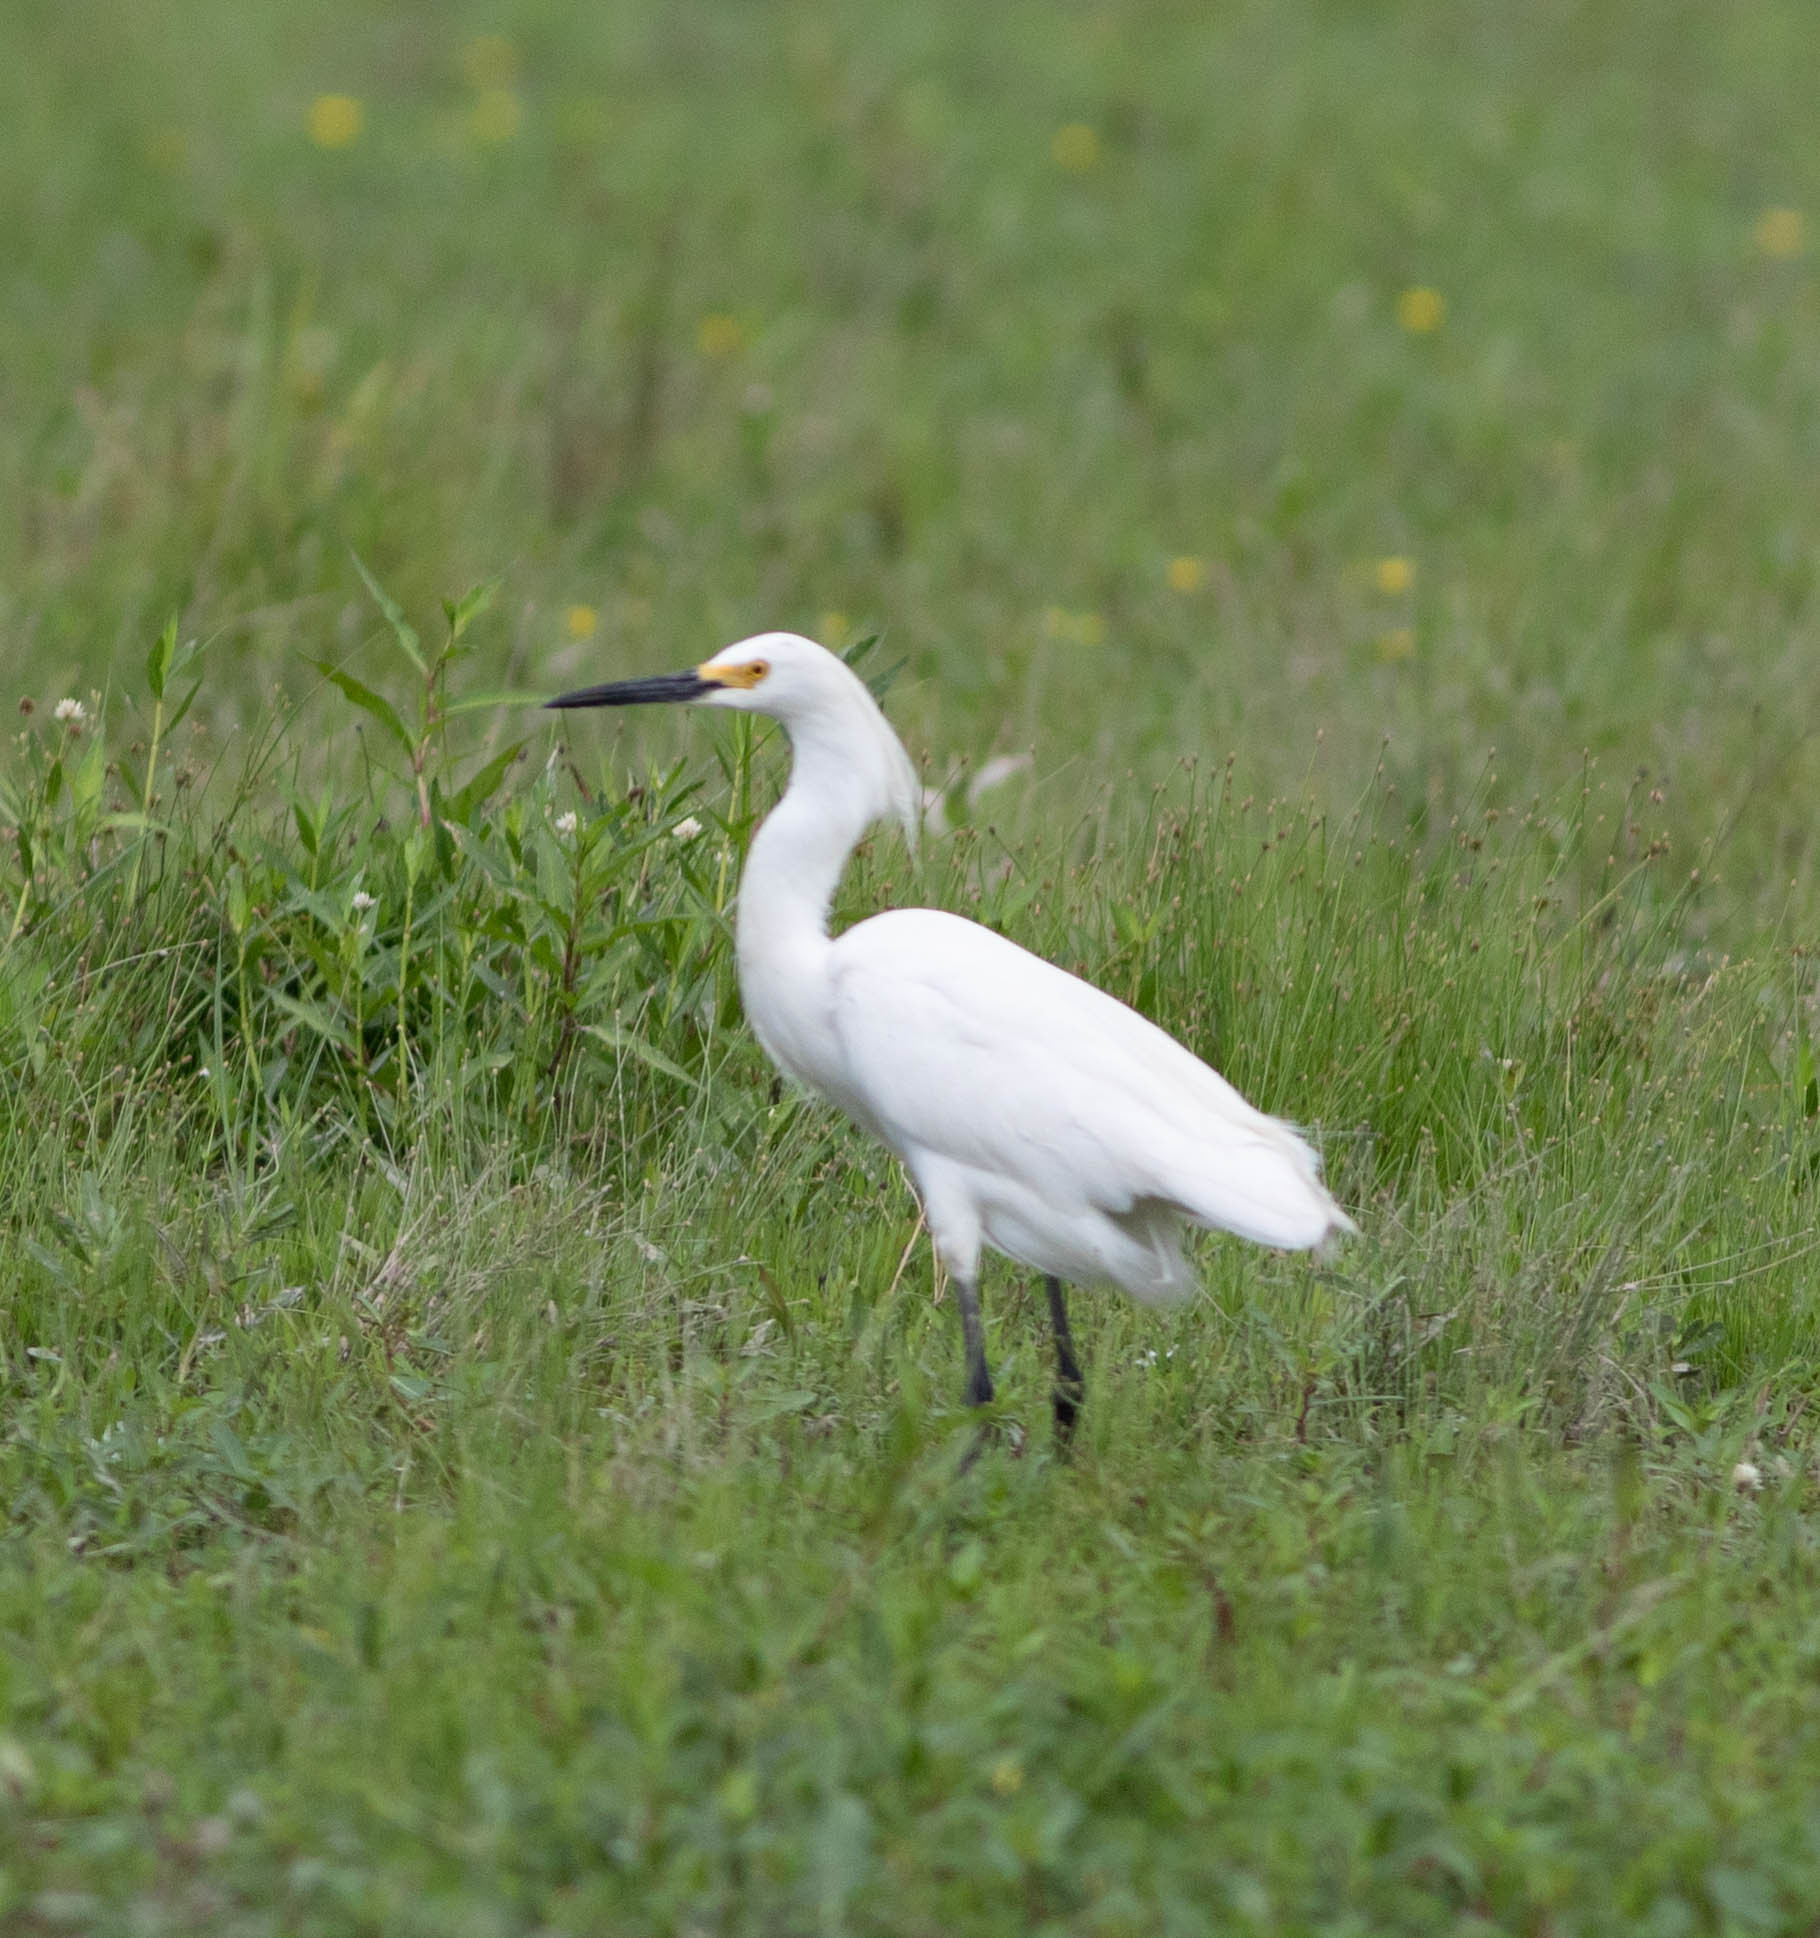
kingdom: Animalia
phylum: Chordata
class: Aves
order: Pelecaniformes
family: Ardeidae
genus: Egretta
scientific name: Egretta thula
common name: Snowy egret
